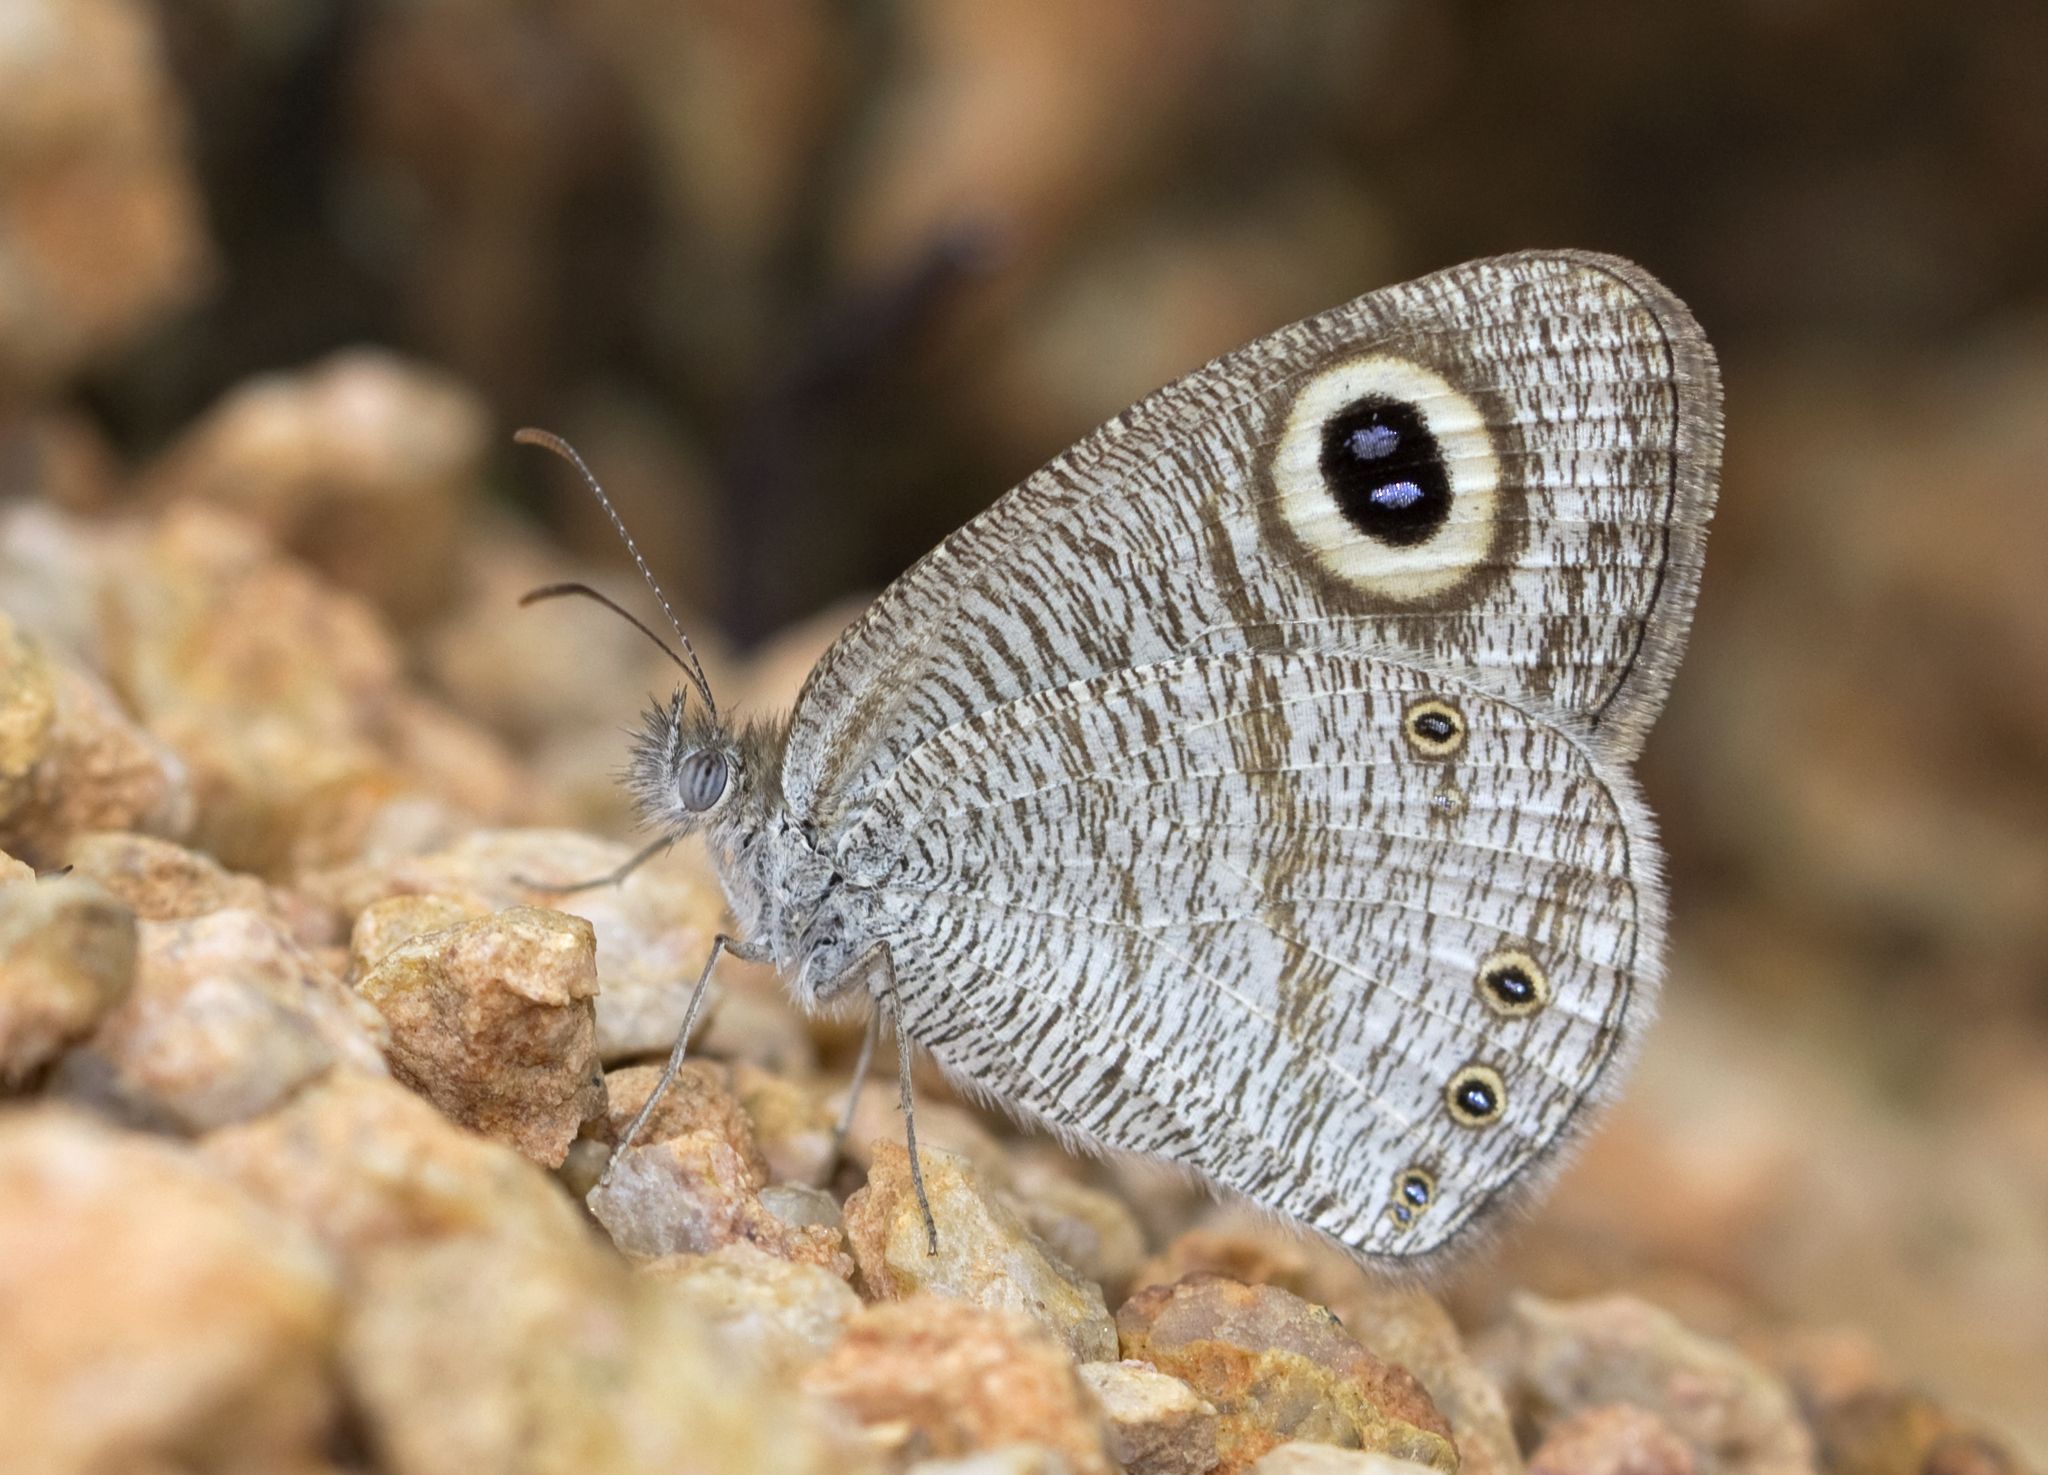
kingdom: Animalia
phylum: Arthropoda
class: Insecta
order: Lepidoptera
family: Nymphalidae
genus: Ypthima
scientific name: Ypthima avanta
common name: Jewel five-ring
